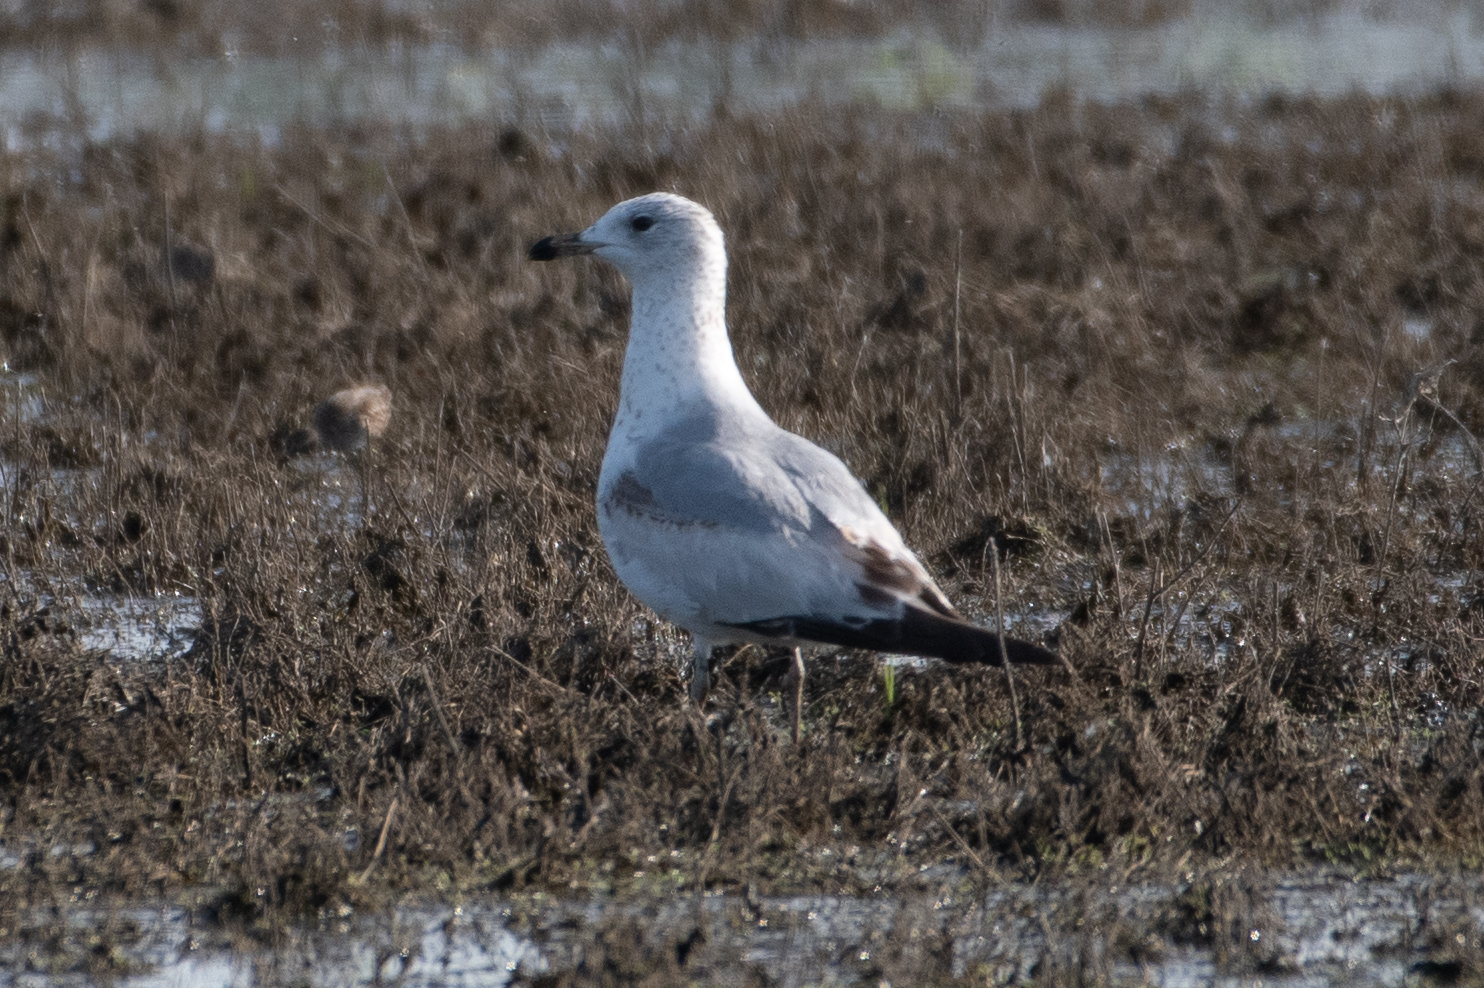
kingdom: Animalia
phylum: Chordata
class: Aves
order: Charadriiformes
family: Laridae
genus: Larus
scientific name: Larus delawarensis
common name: Ring-billed gull
